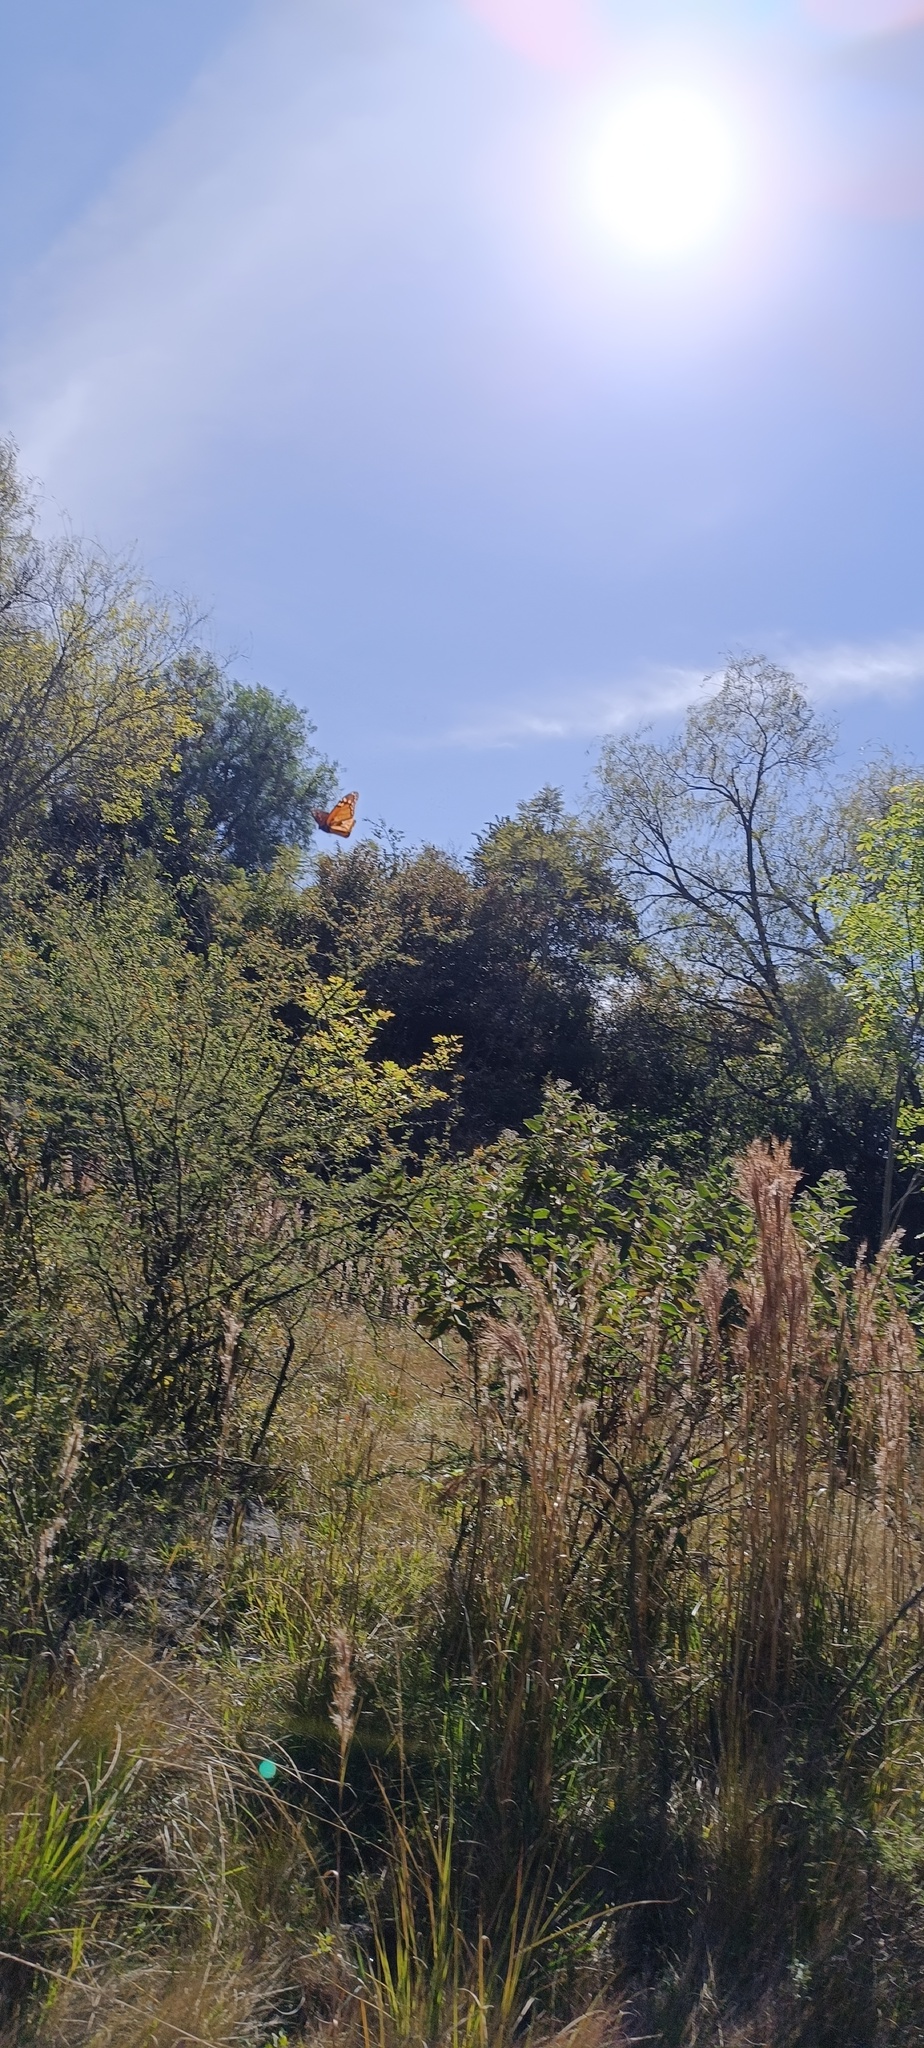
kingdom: Animalia
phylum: Arthropoda
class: Insecta
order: Lepidoptera
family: Nymphalidae
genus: Danaus
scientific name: Danaus plexippus
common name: Monarch
